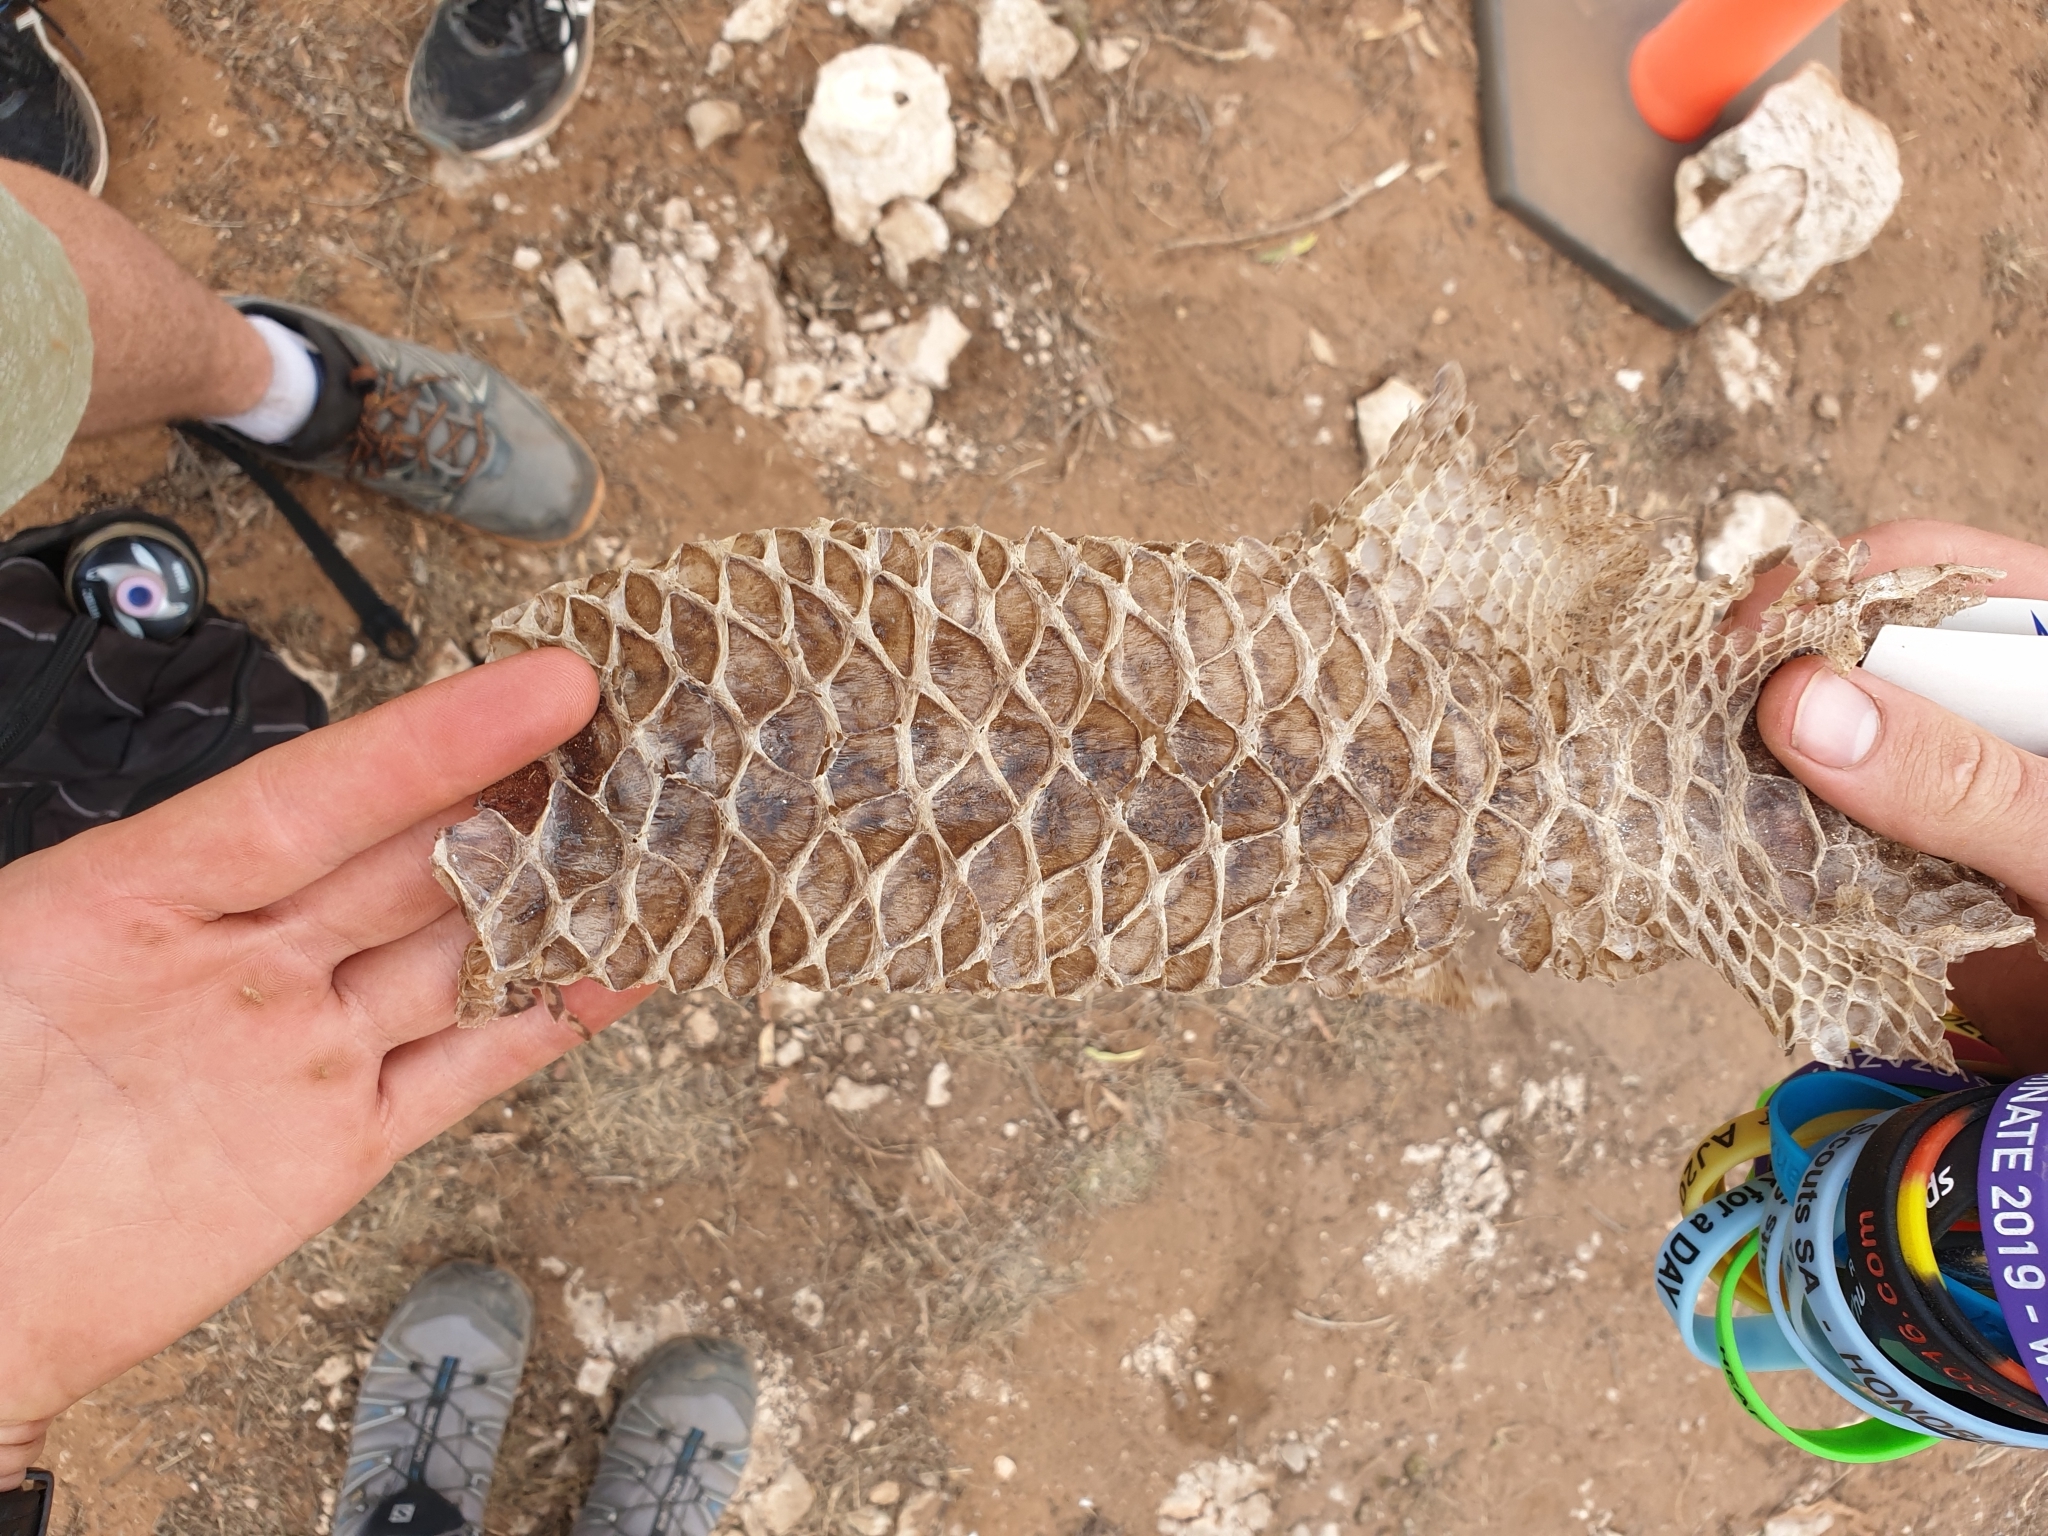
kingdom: Animalia
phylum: Chordata
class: Squamata
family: Scincidae
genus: Tiliqua
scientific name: Tiliqua rugosa
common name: Pinecone lizard
